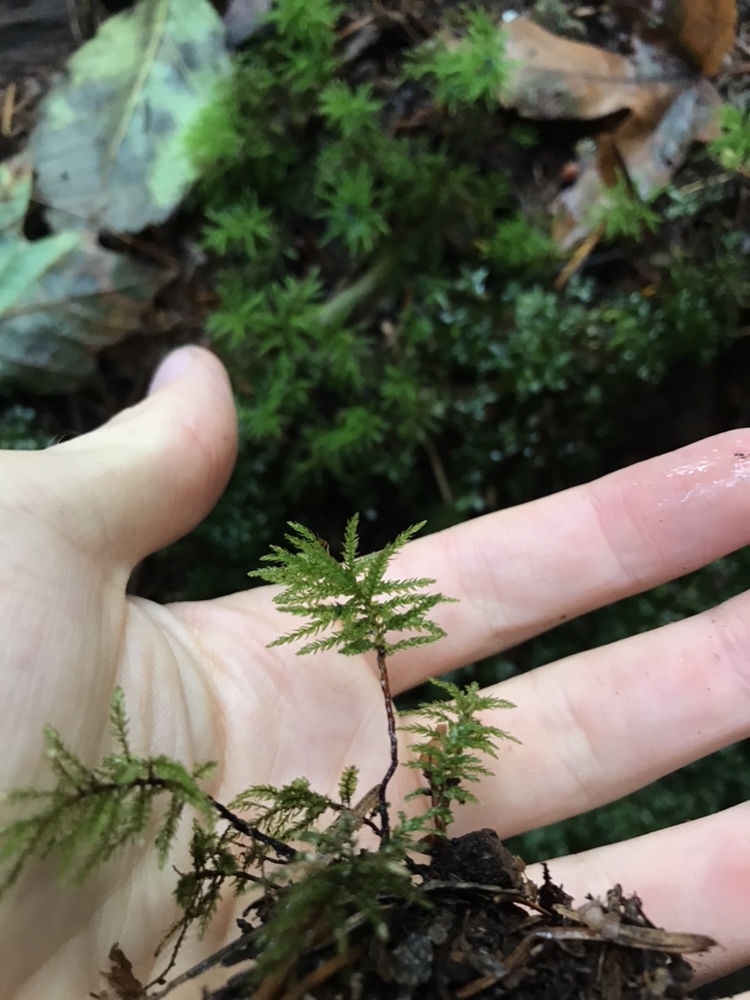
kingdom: Plantae
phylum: Bryophyta
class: Bryopsida
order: Bryales
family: Mniaceae
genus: Leucolepis
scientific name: Leucolepis acanthoneura
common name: Leucolepis umbrella moss
